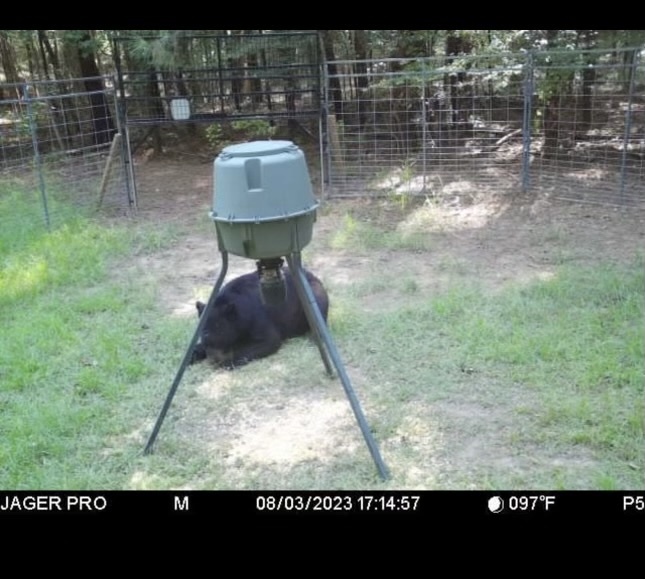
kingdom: Animalia
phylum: Chordata
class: Mammalia
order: Carnivora
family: Ursidae
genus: Ursus
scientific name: Ursus americanus
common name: American black bear
